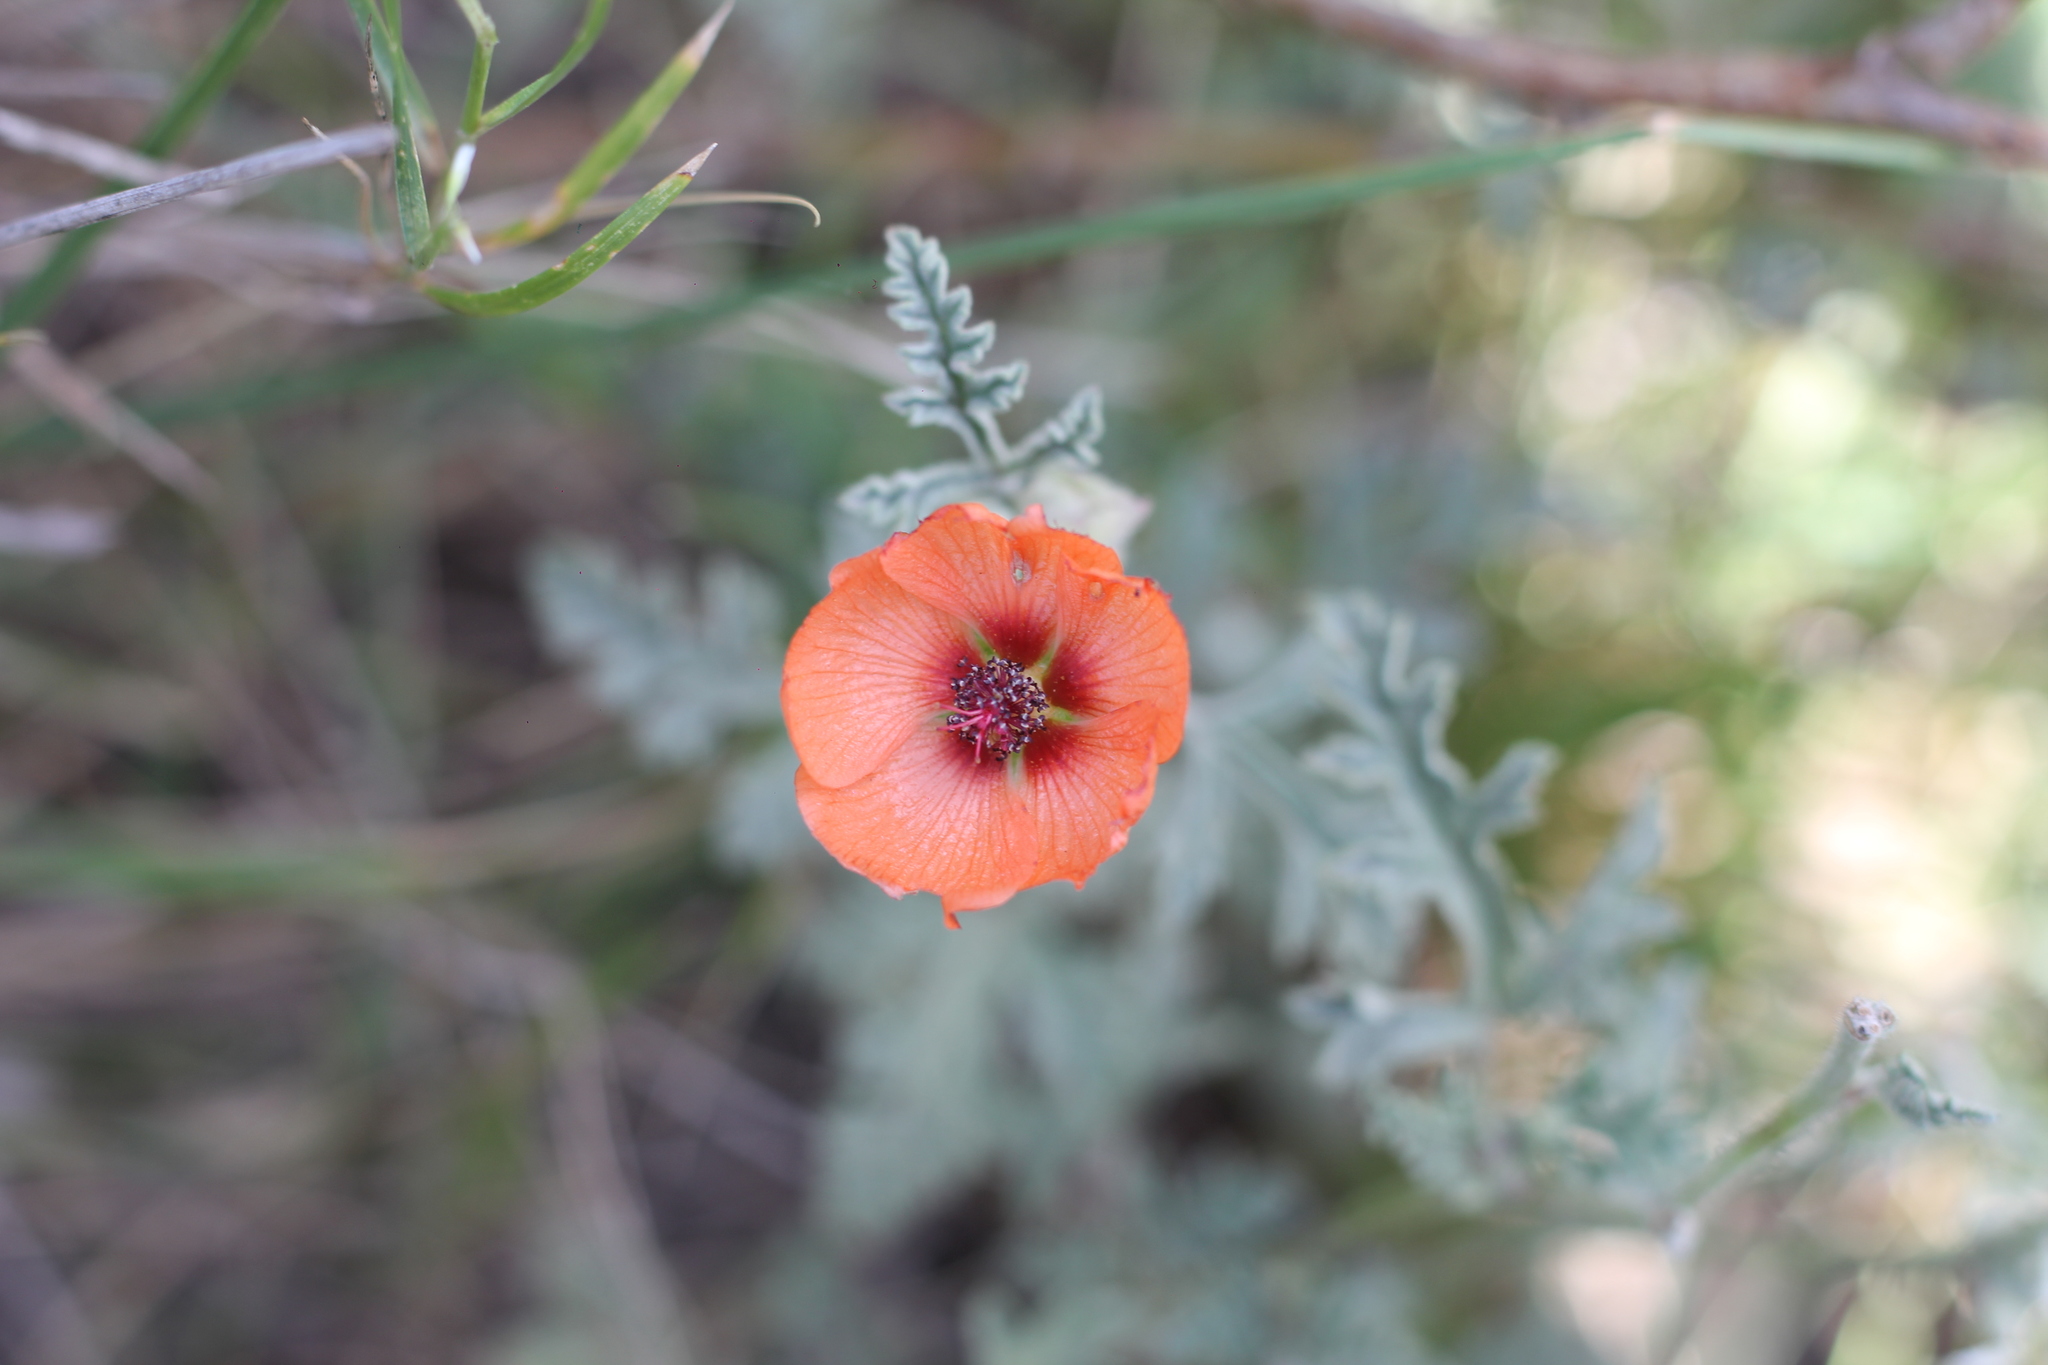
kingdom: Plantae
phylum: Tracheophyta
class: Magnoliopsida
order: Malvales
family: Malvaceae
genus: Sphaeralcea
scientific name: Sphaeralcea australis
